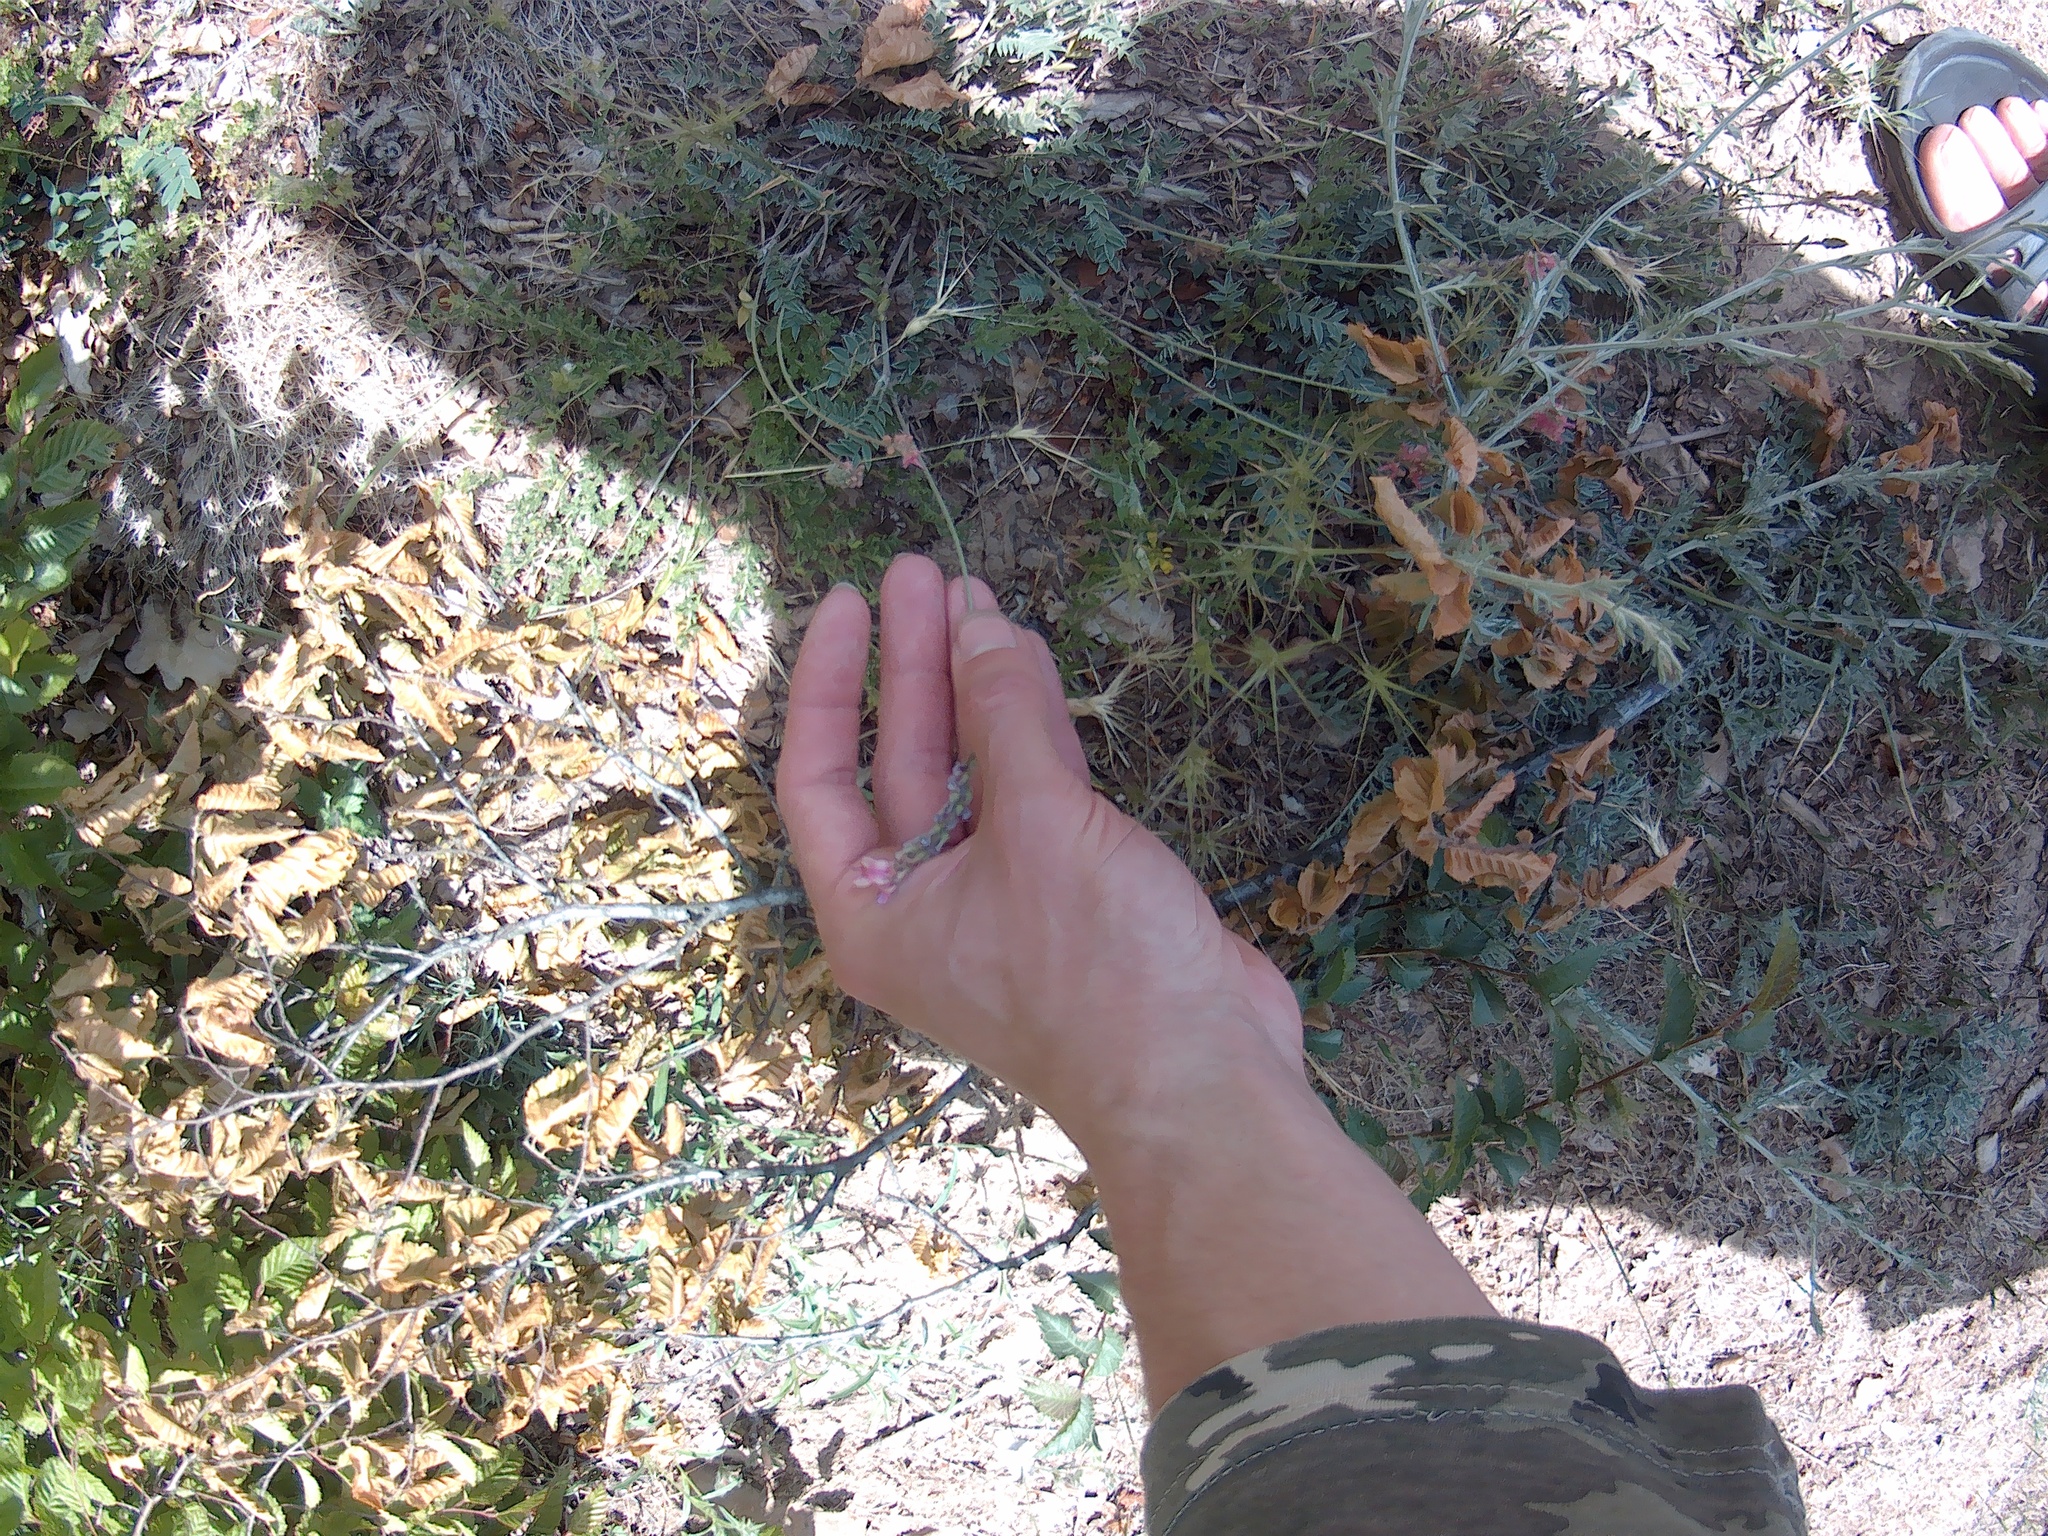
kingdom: Plantae
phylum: Tracheophyta
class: Magnoliopsida
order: Fabales
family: Fabaceae
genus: Onobrychis
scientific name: Onobrychis arenaria
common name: Sand esparcet
